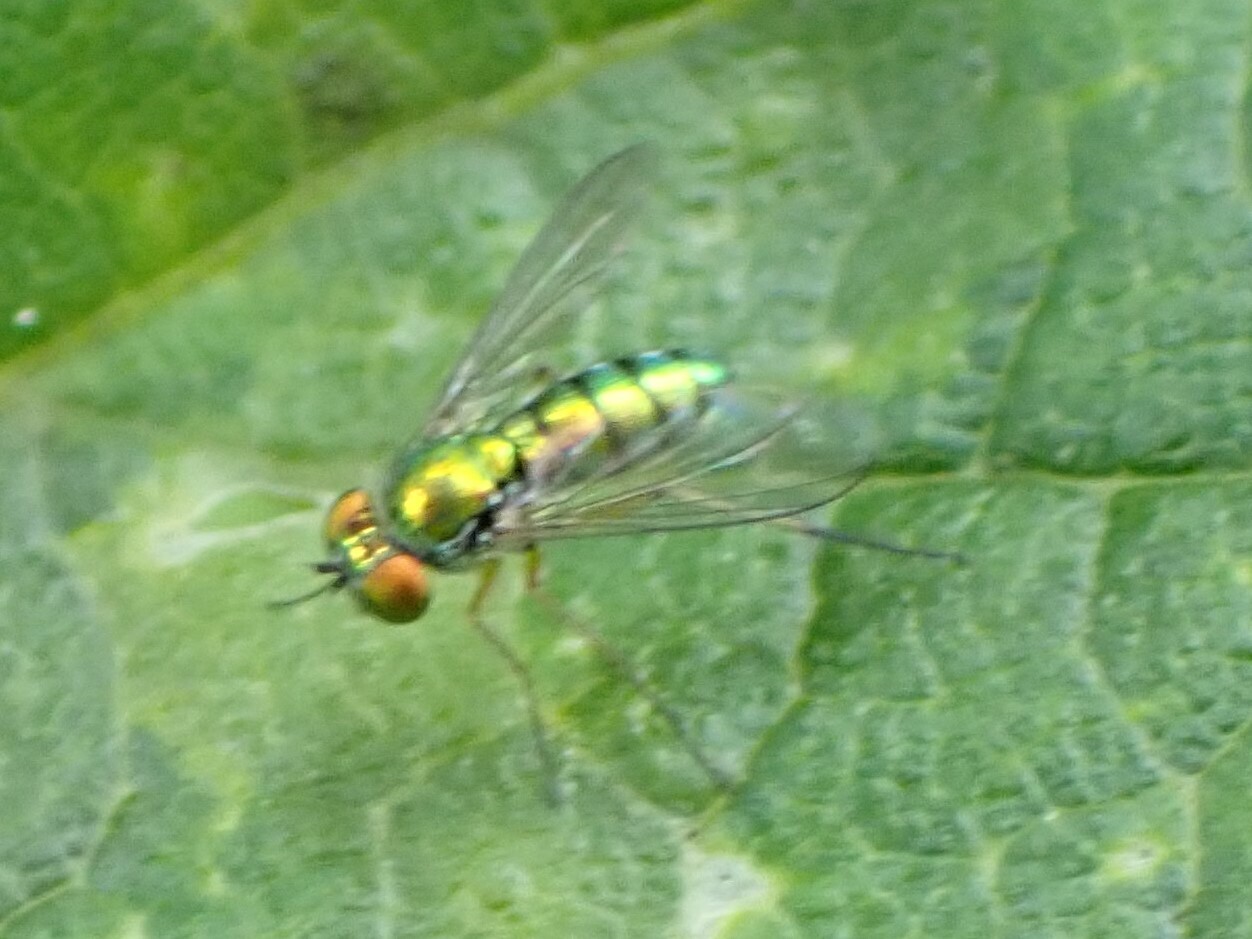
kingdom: Animalia
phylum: Arthropoda
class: Insecta
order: Diptera
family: Dolichopodidae
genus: Condylostylus
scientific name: Condylostylus
